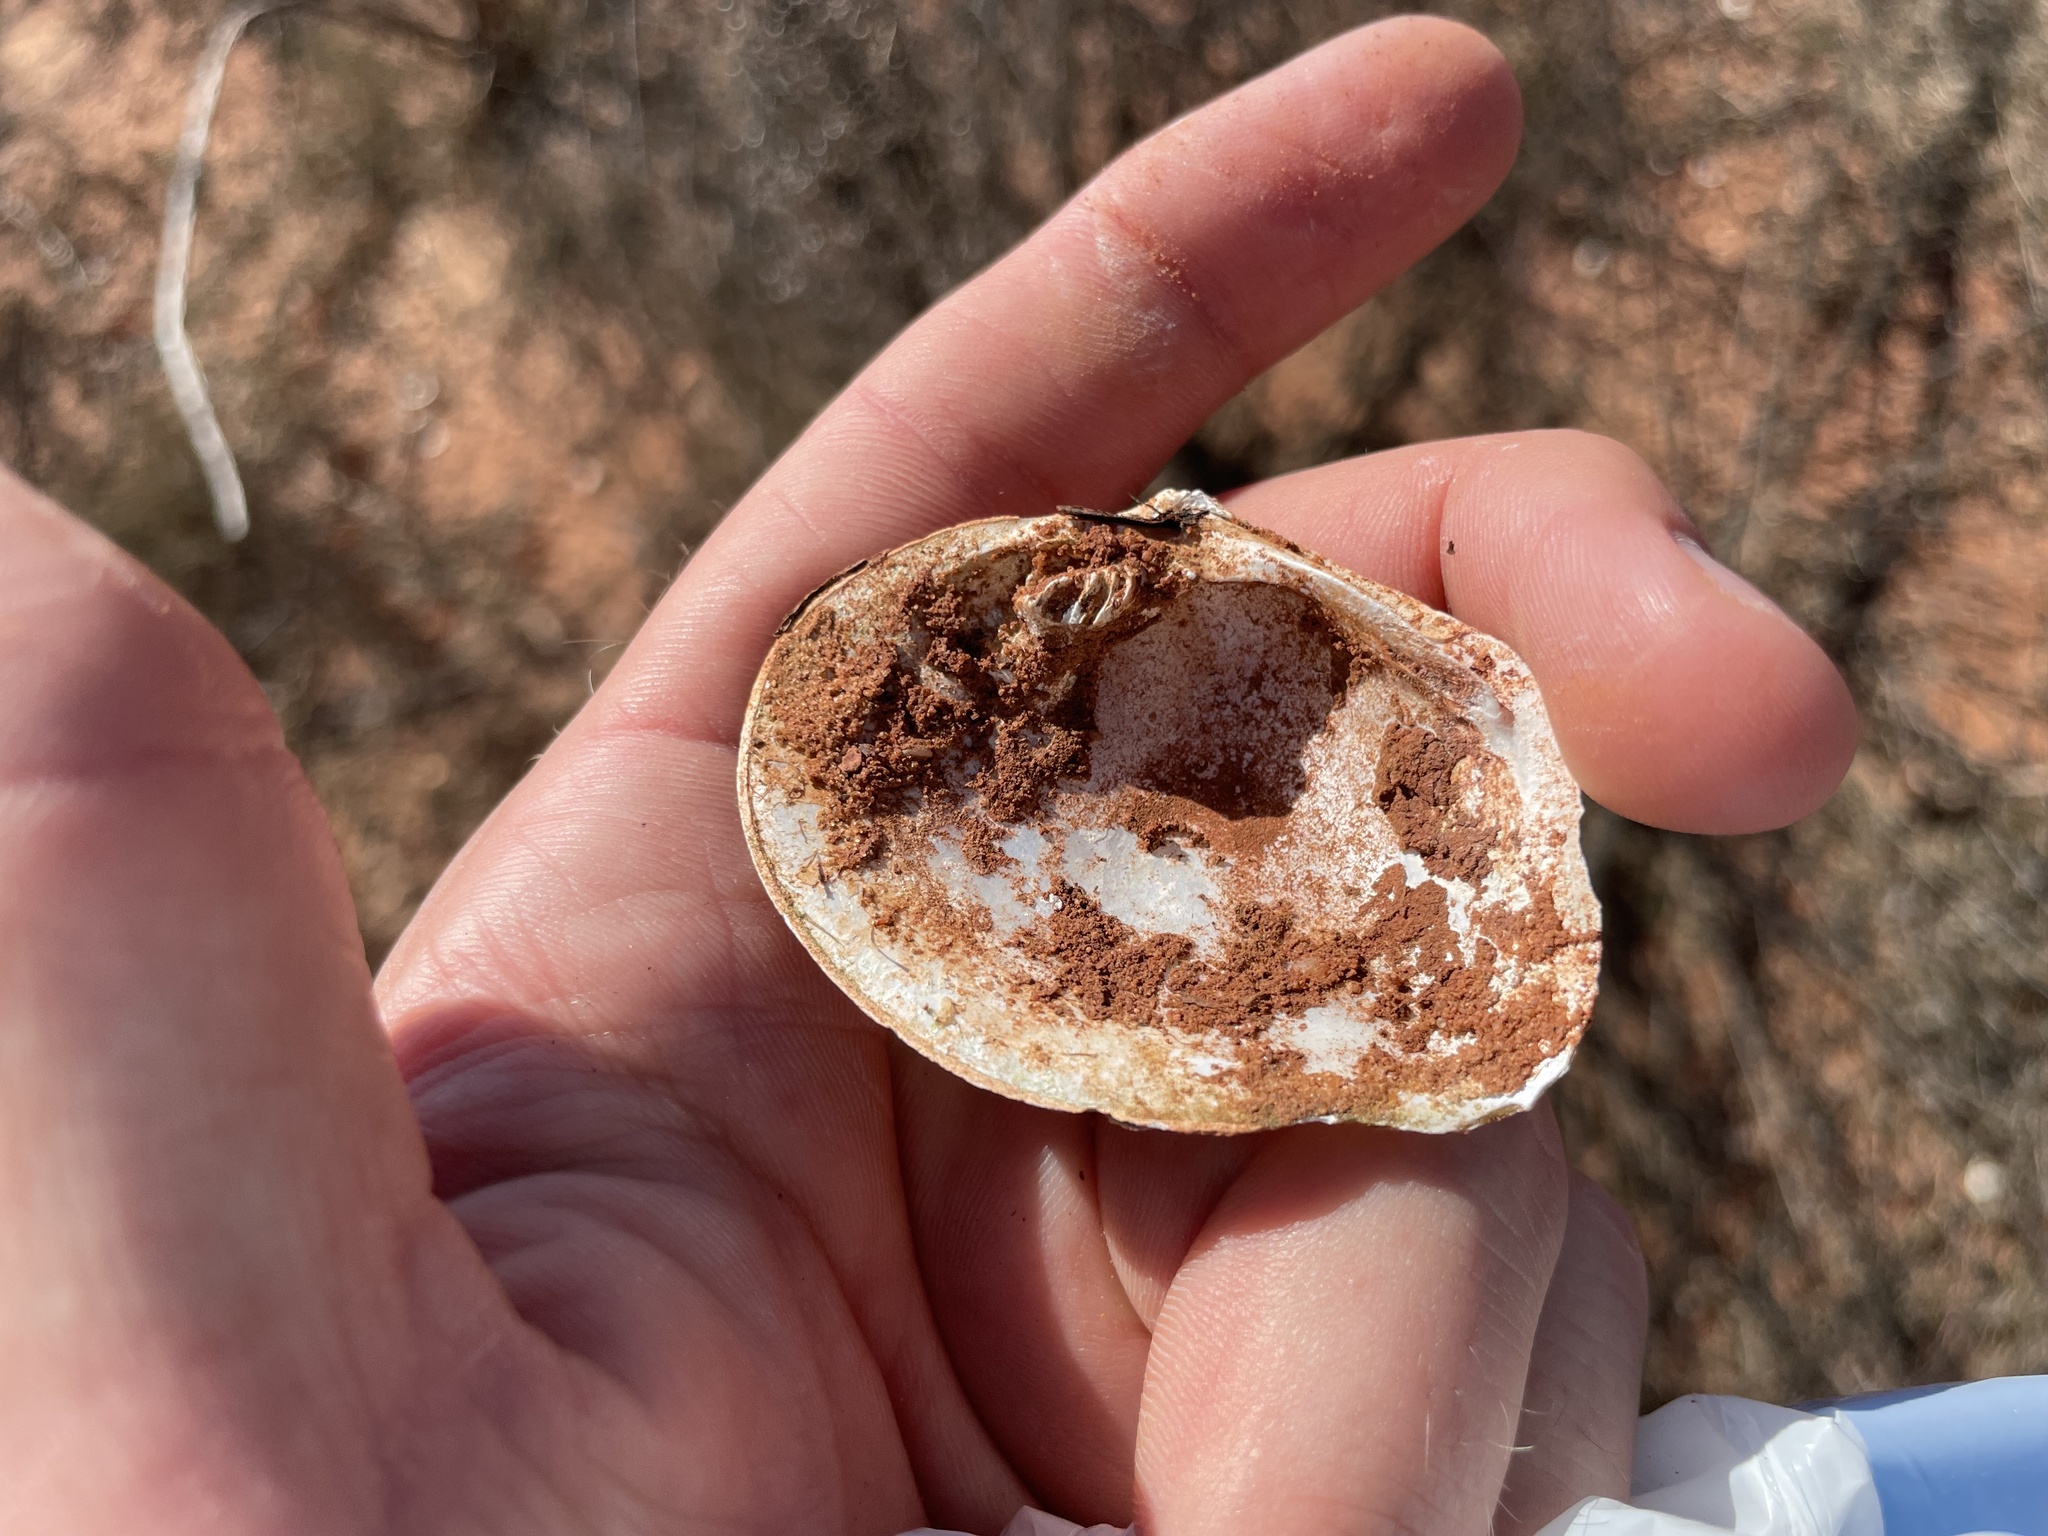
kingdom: Animalia
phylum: Mollusca
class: Bivalvia
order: Unionida
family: Unionidae
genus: Quadrula
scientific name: Quadrula quadrula
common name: Mapleleaf
